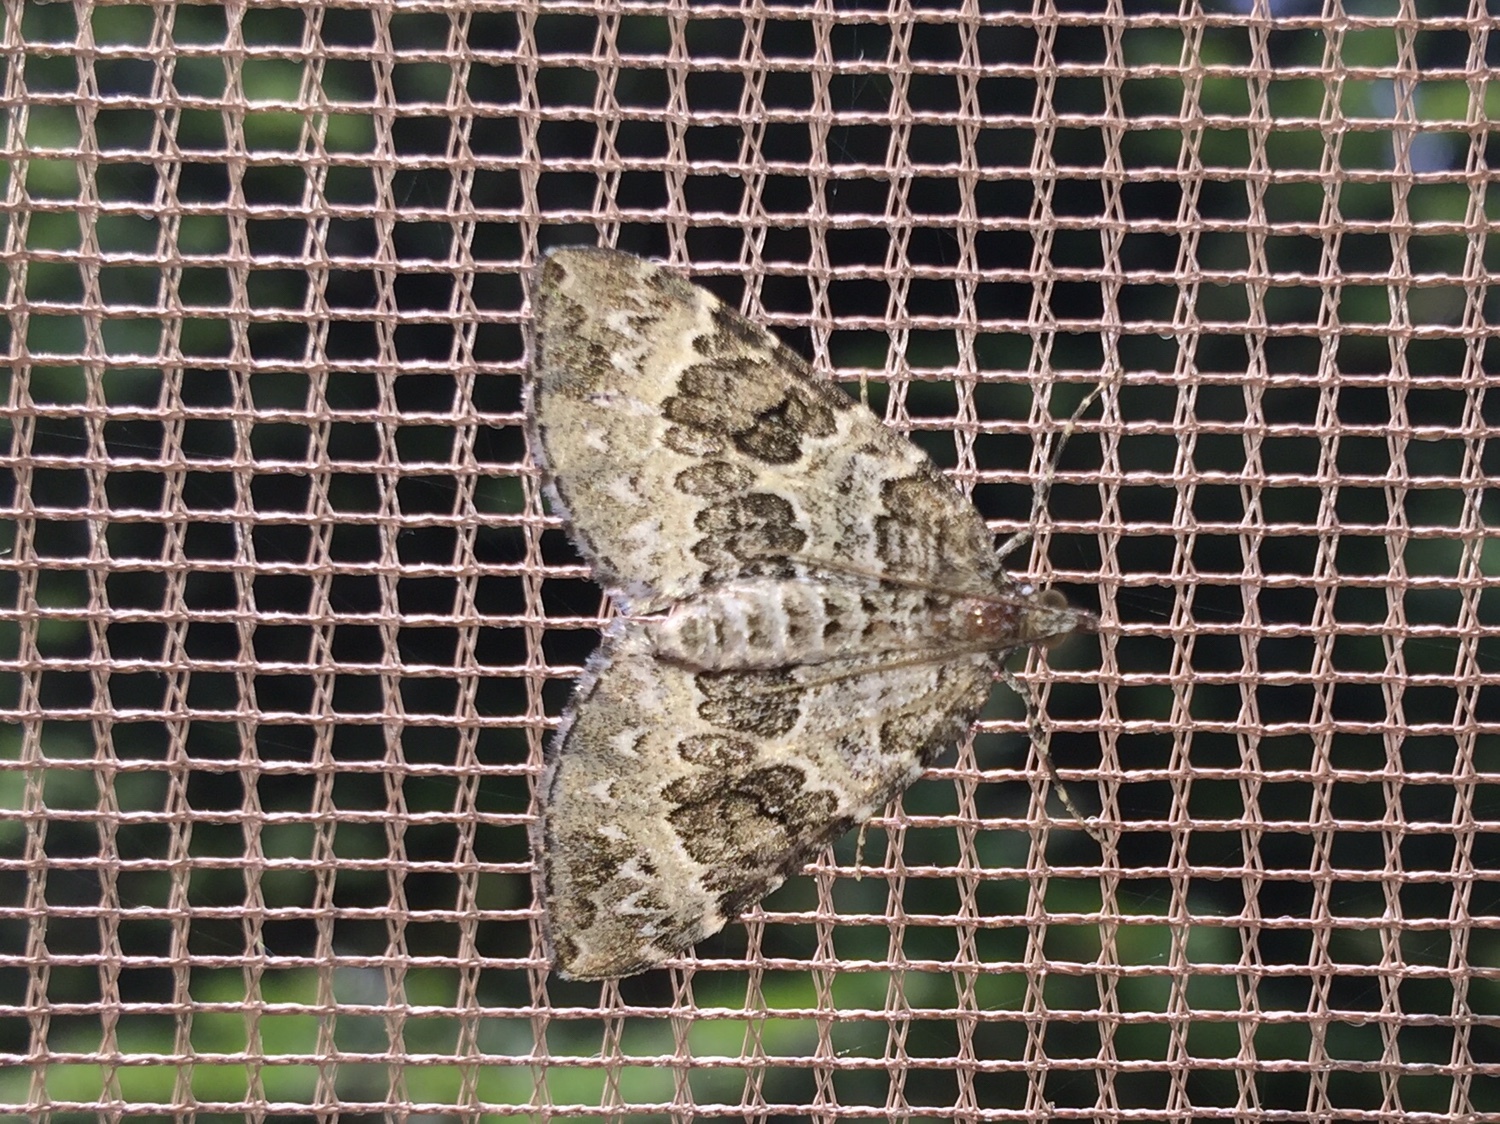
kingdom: Animalia
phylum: Arthropoda
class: Insecta
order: Lepidoptera
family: Geometridae
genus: Eulithis
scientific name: Eulithis explanata
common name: White eulithis
